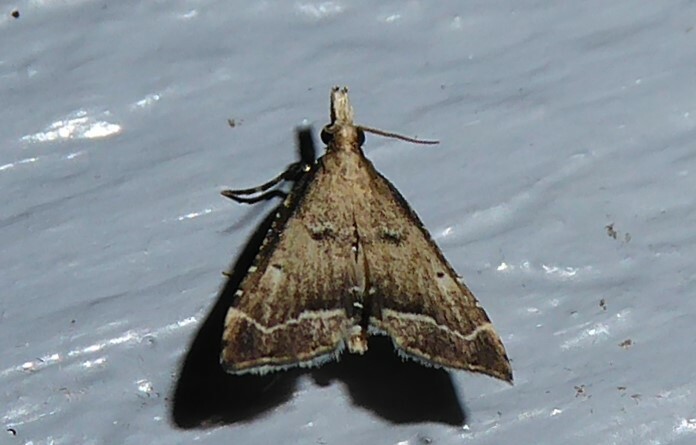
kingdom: Animalia
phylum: Arthropoda
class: Insecta
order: Lepidoptera
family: Crambidae
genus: Diplopseustis
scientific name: Diplopseustis perieresalis
